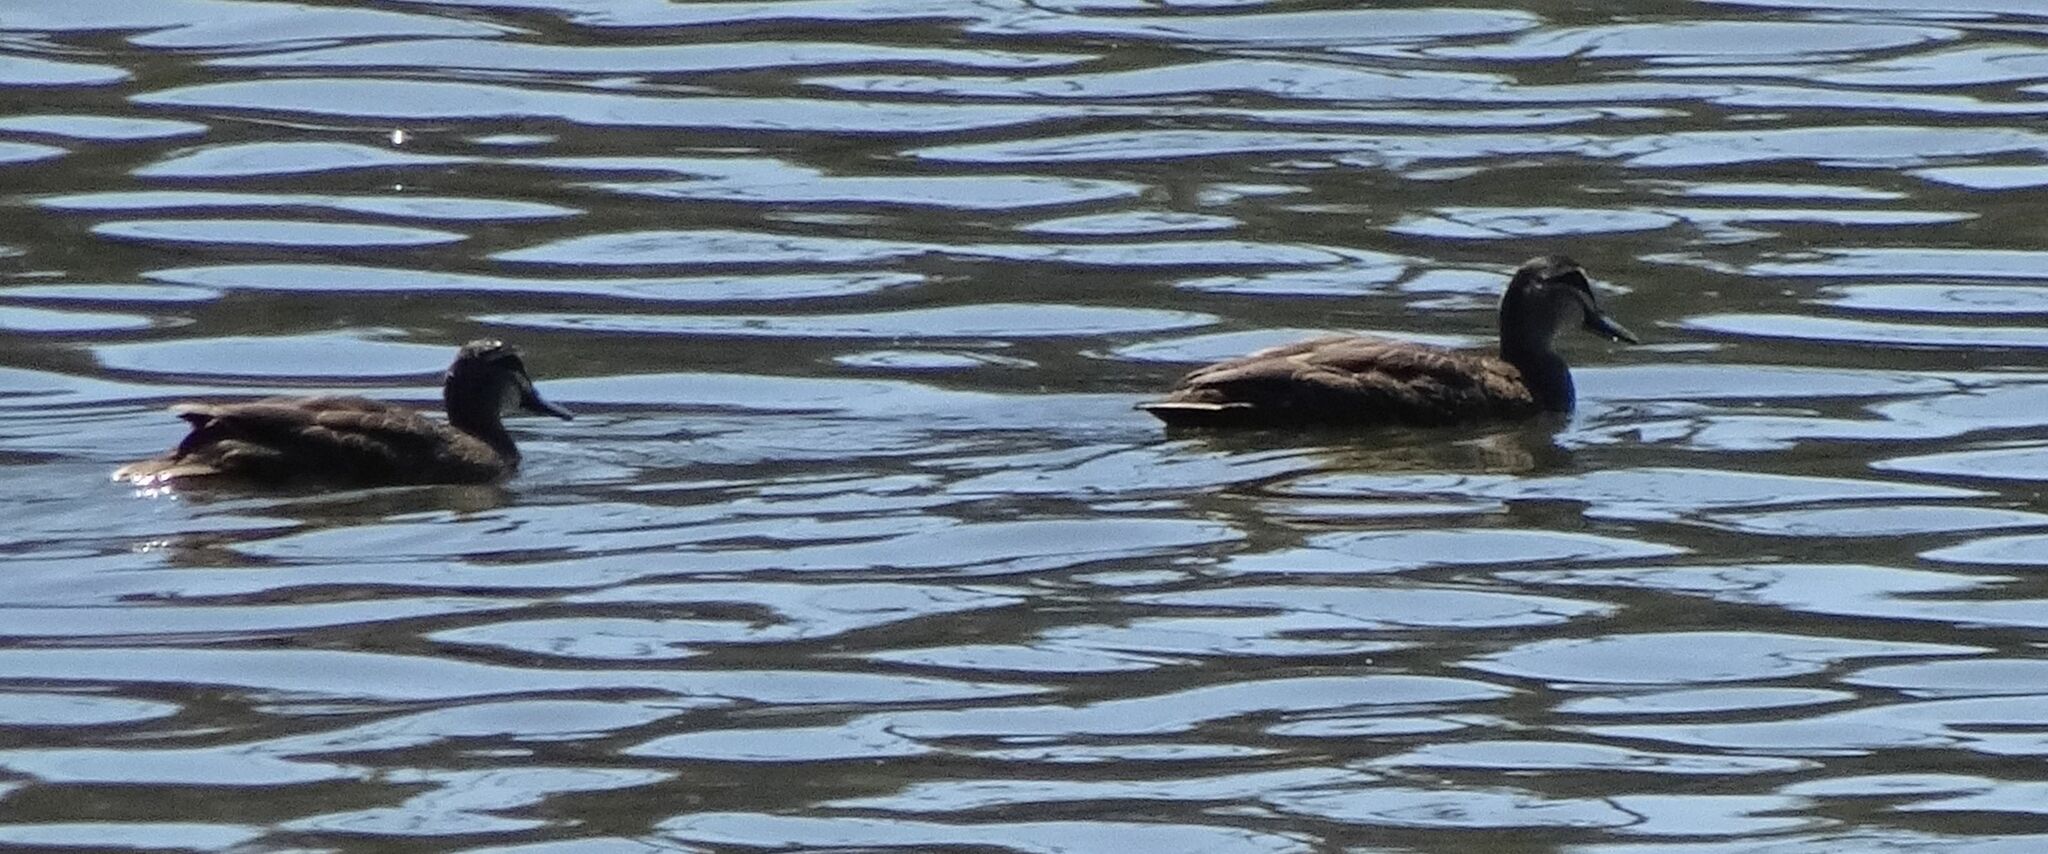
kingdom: Animalia
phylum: Chordata
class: Aves
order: Anseriformes
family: Anatidae
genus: Anas
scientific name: Anas superciliosa
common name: Pacific black duck
